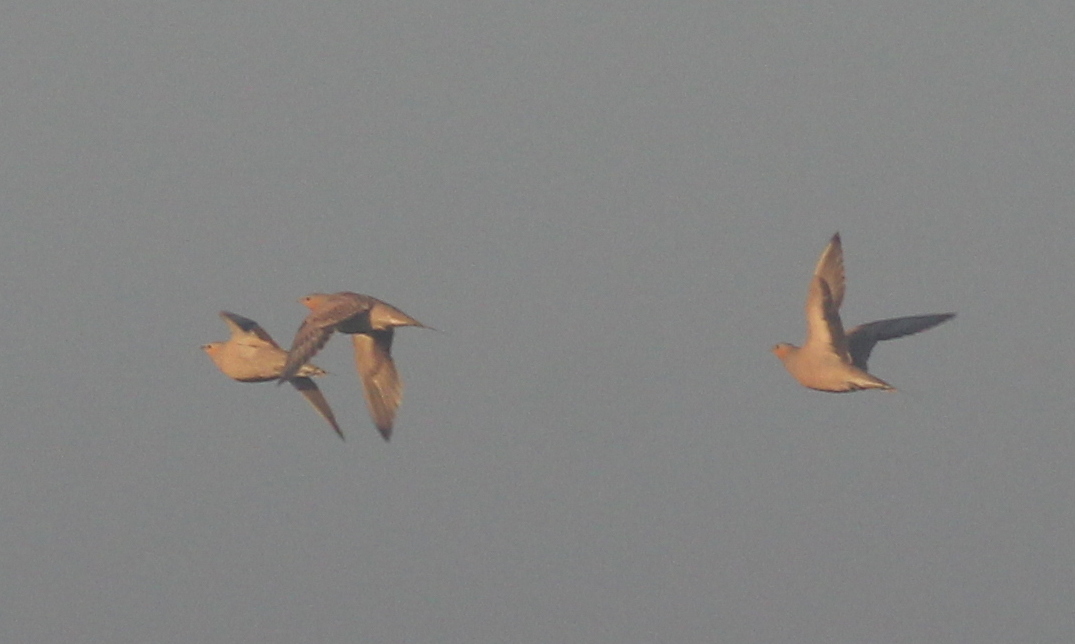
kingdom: Animalia
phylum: Chordata
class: Aves
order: Pteroclidiformes
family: Pteroclididae
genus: Pterocles
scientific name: Pterocles senegallus
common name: Spotted sandgrouse
